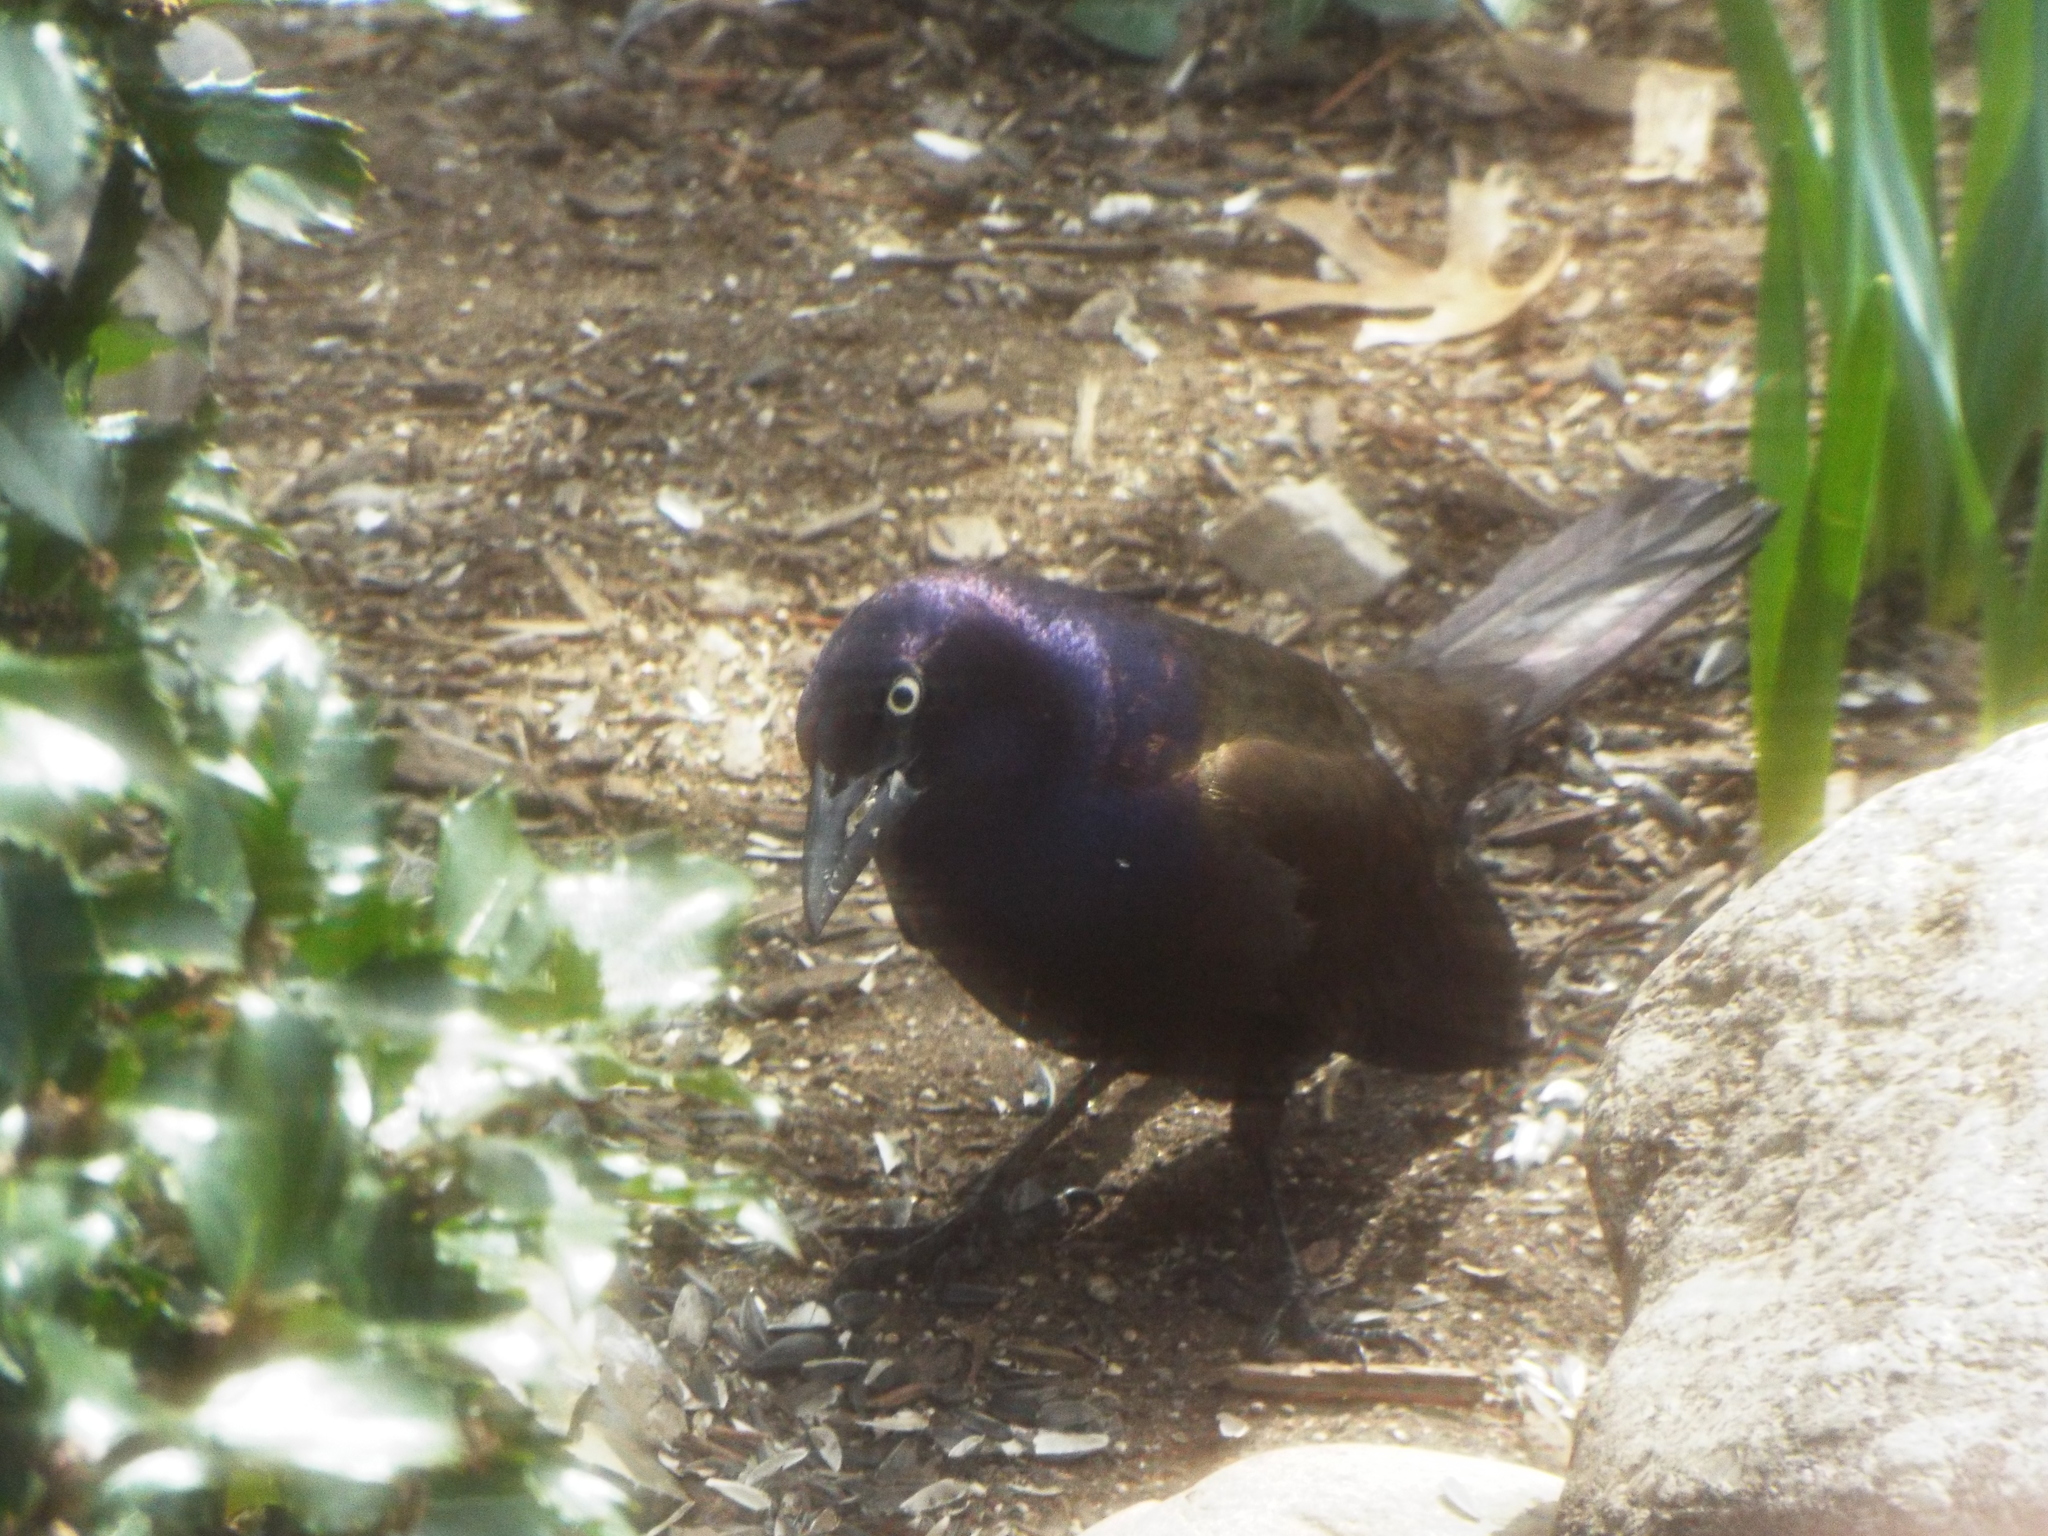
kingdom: Animalia
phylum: Chordata
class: Aves
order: Passeriformes
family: Icteridae
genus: Quiscalus
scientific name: Quiscalus quiscula
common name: Common grackle
